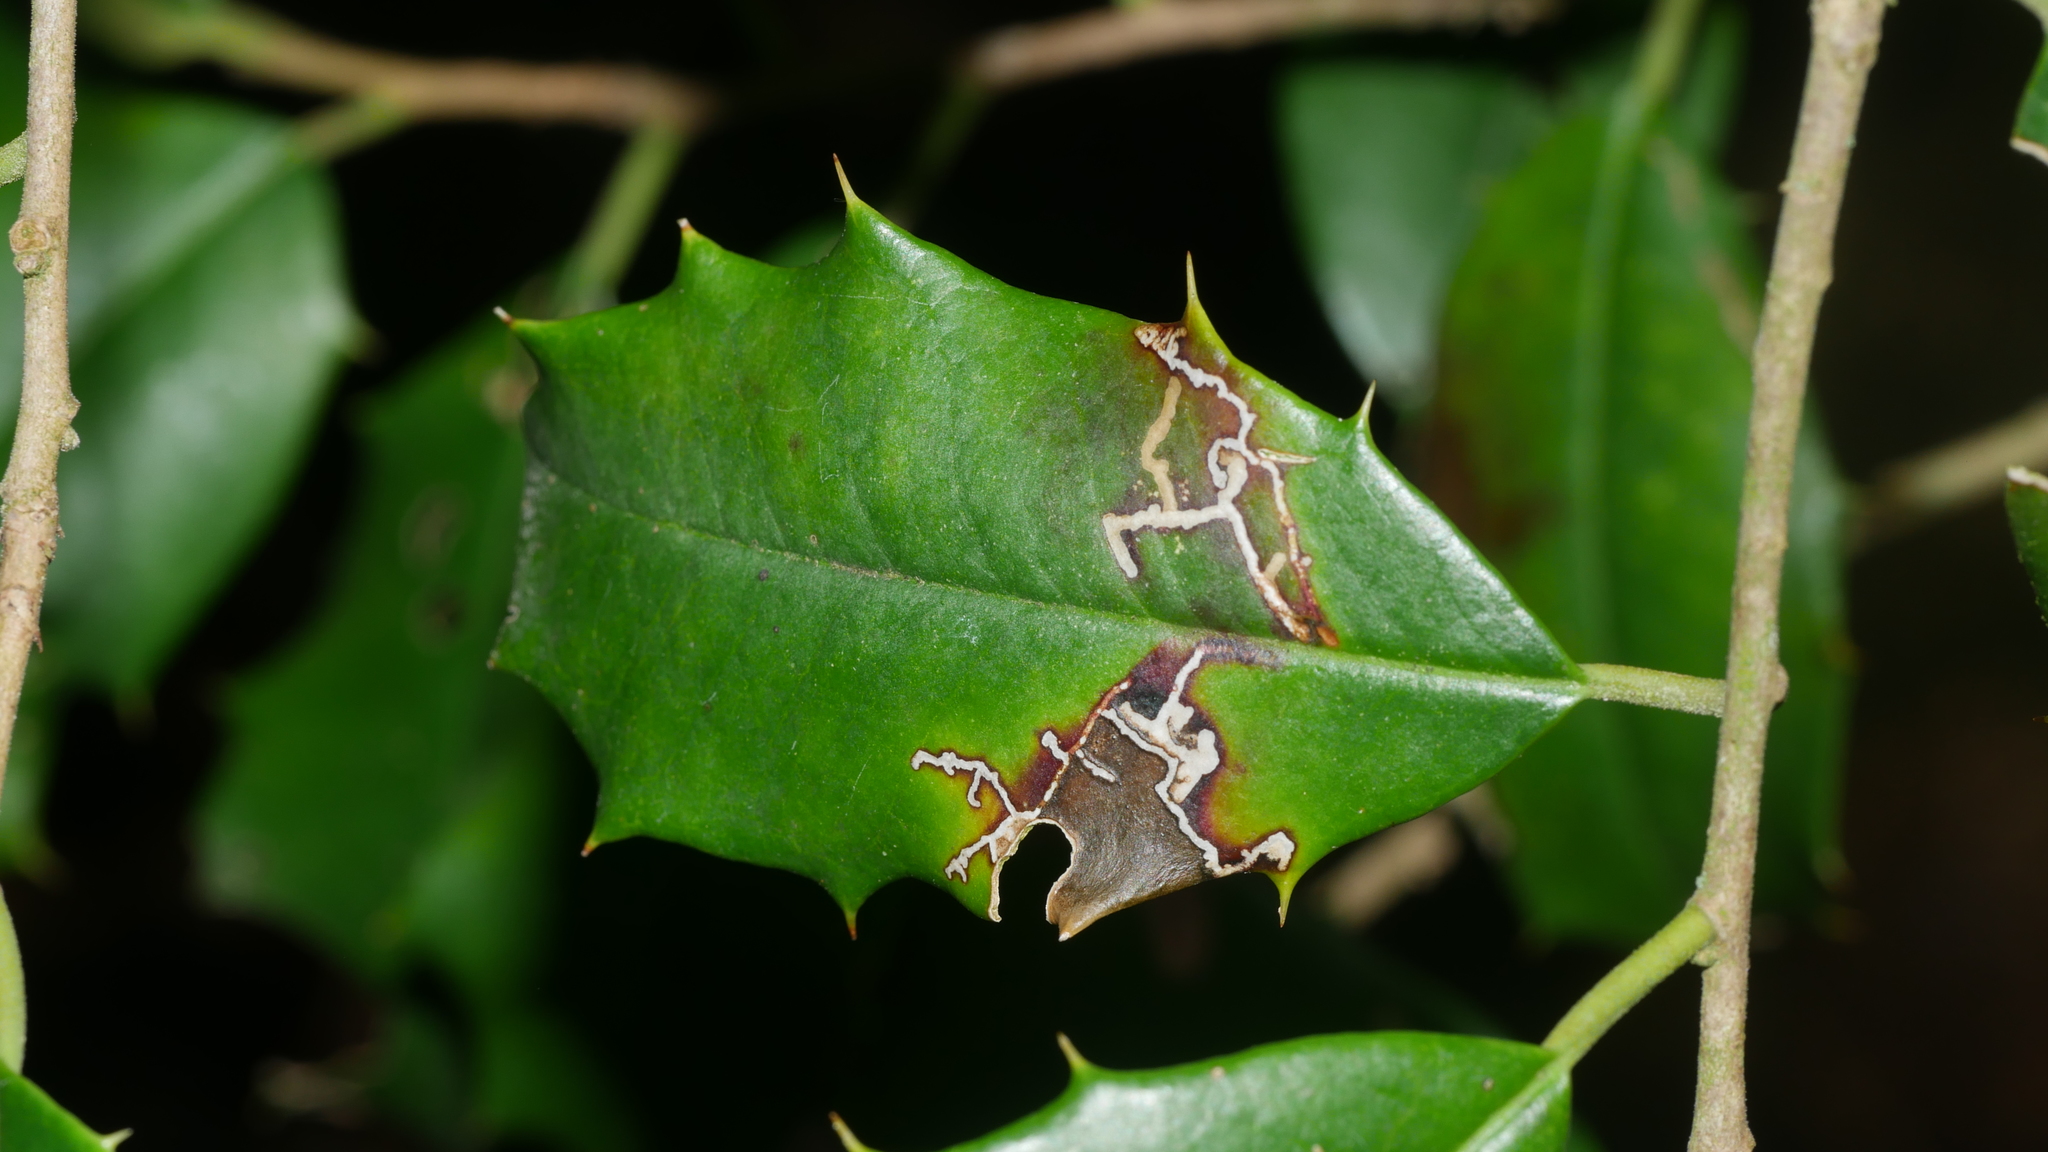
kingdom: Animalia
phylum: Arthropoda
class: Insecta
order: Lepidoptera
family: Tortricidae
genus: Rhopobota
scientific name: Rhopobota
